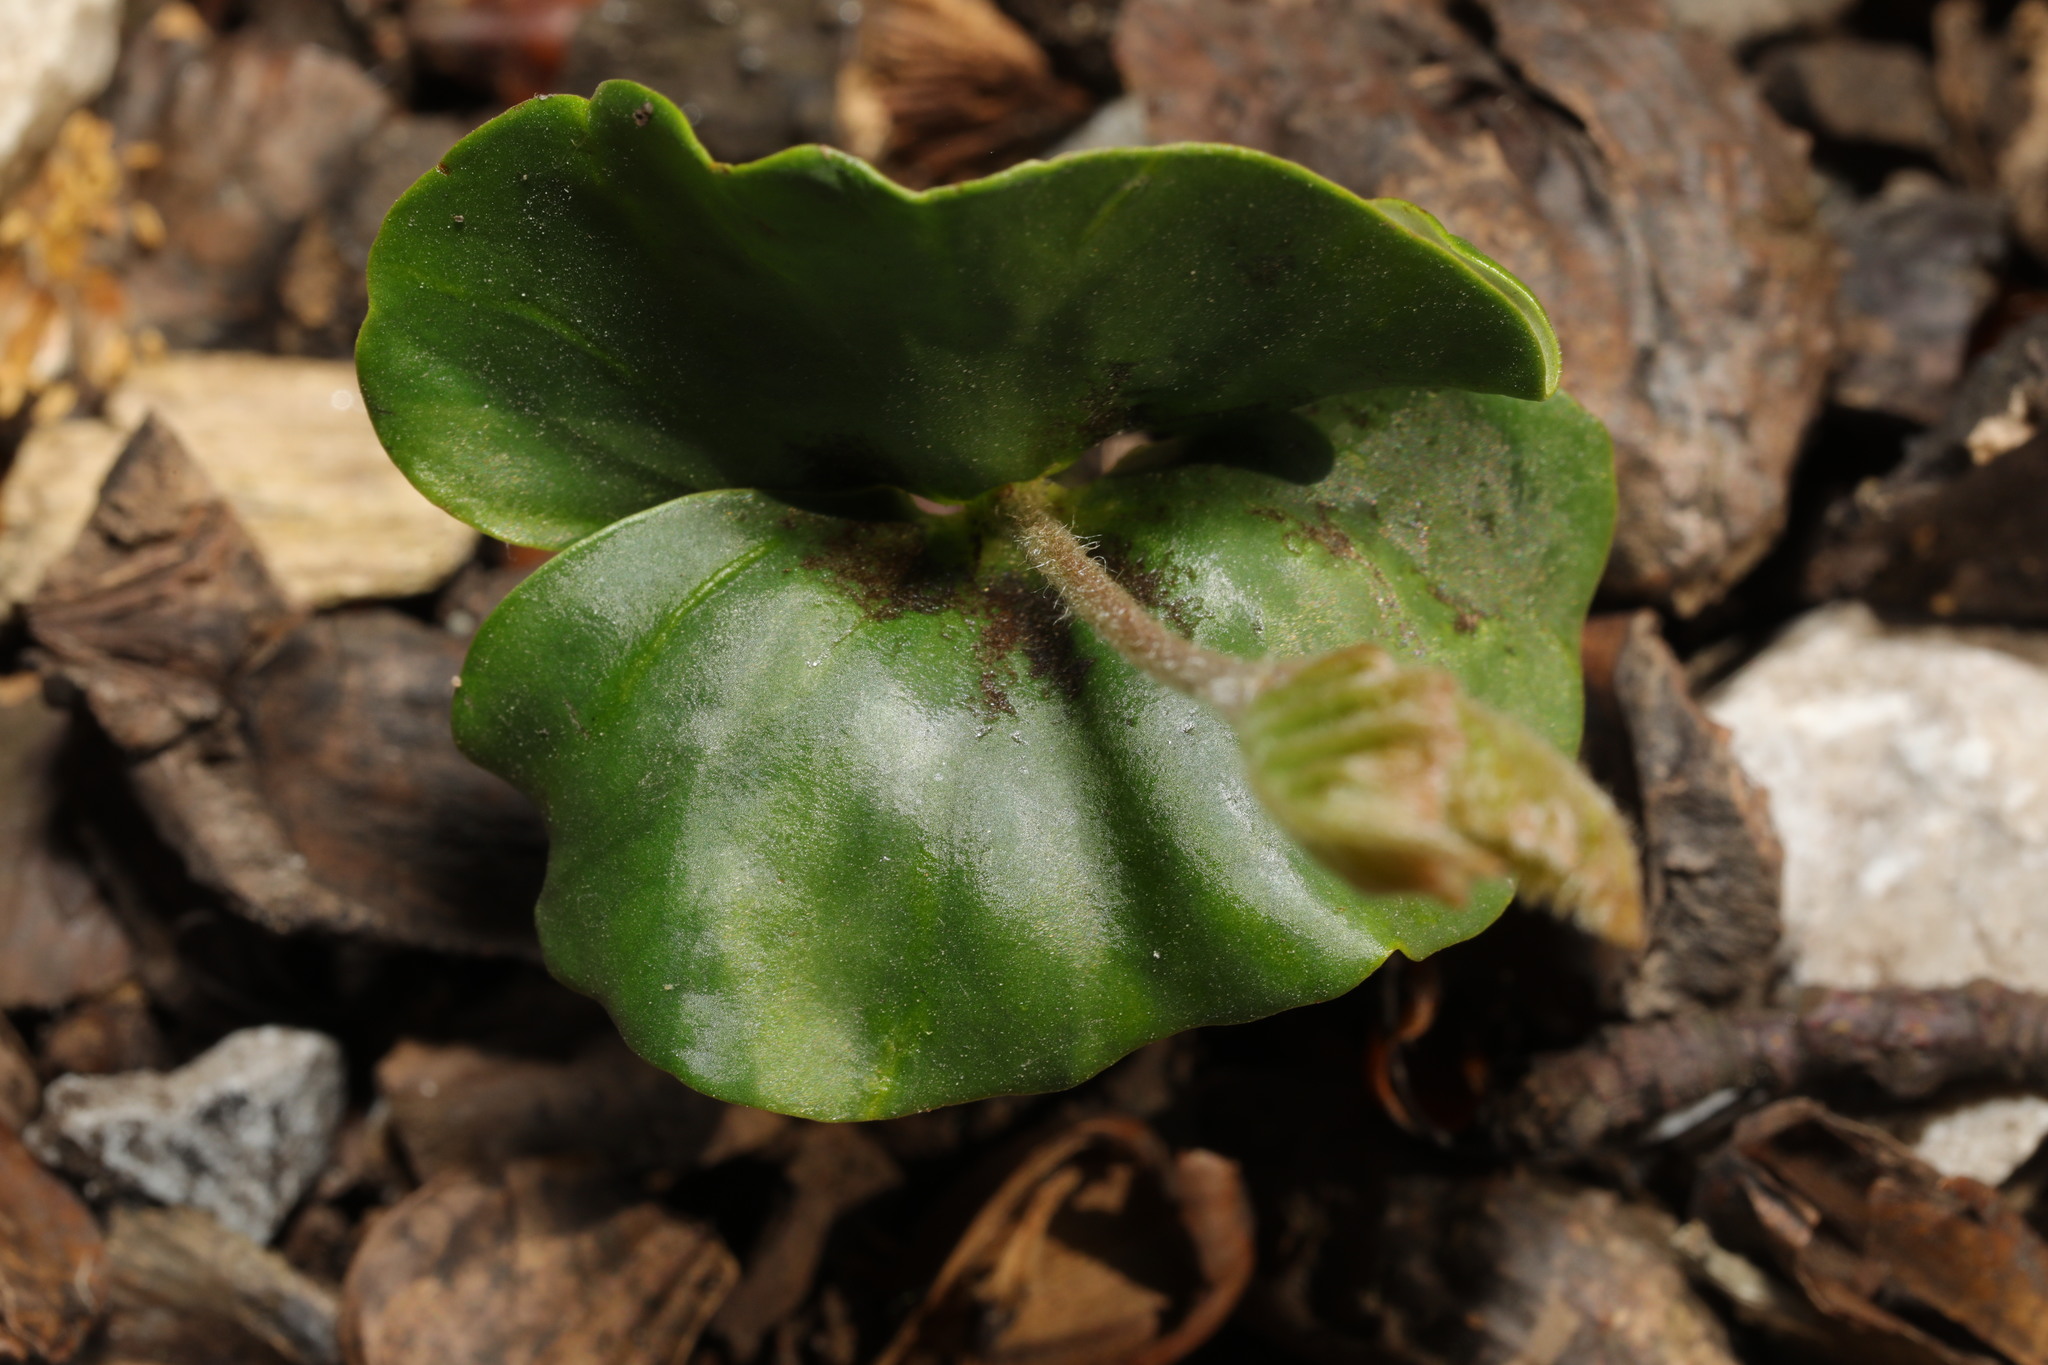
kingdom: Plantae
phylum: Tracheophyta
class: Magnoliopsida
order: Fagales
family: Fagaceae
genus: Fagus
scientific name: Fagus sylvatica
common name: Beech
